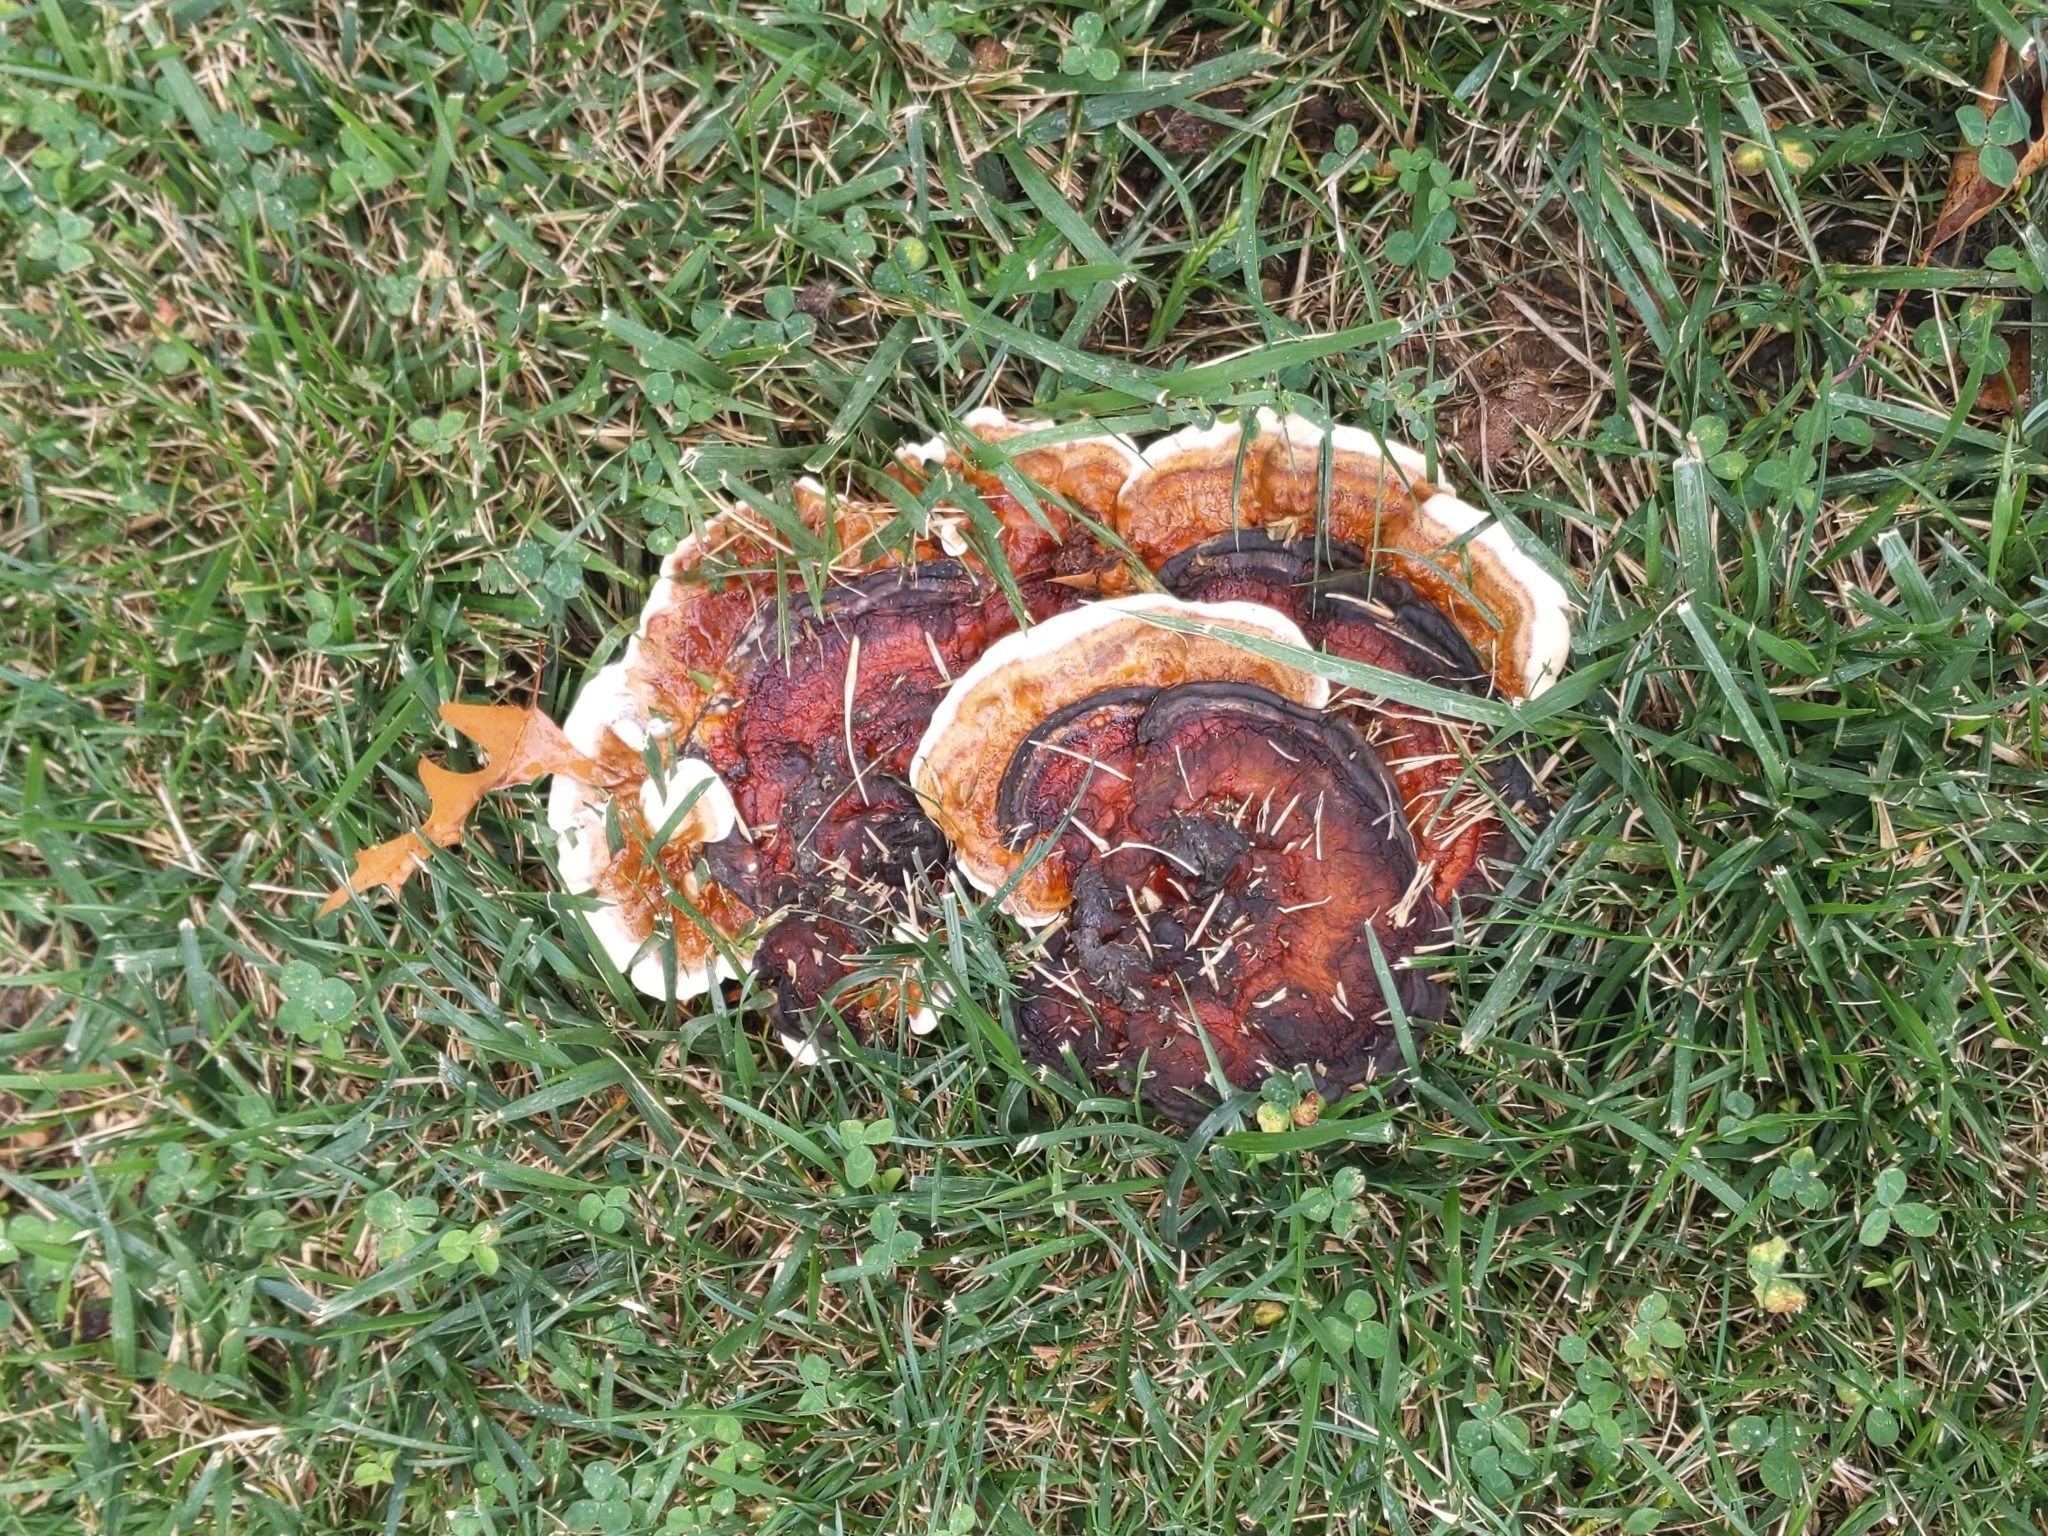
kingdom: Fungi
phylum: Basidiomycota
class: Agaricomycetes
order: Polyporales
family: Polyporaceae
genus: Ganoderma
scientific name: Ganoderma resinaceum
